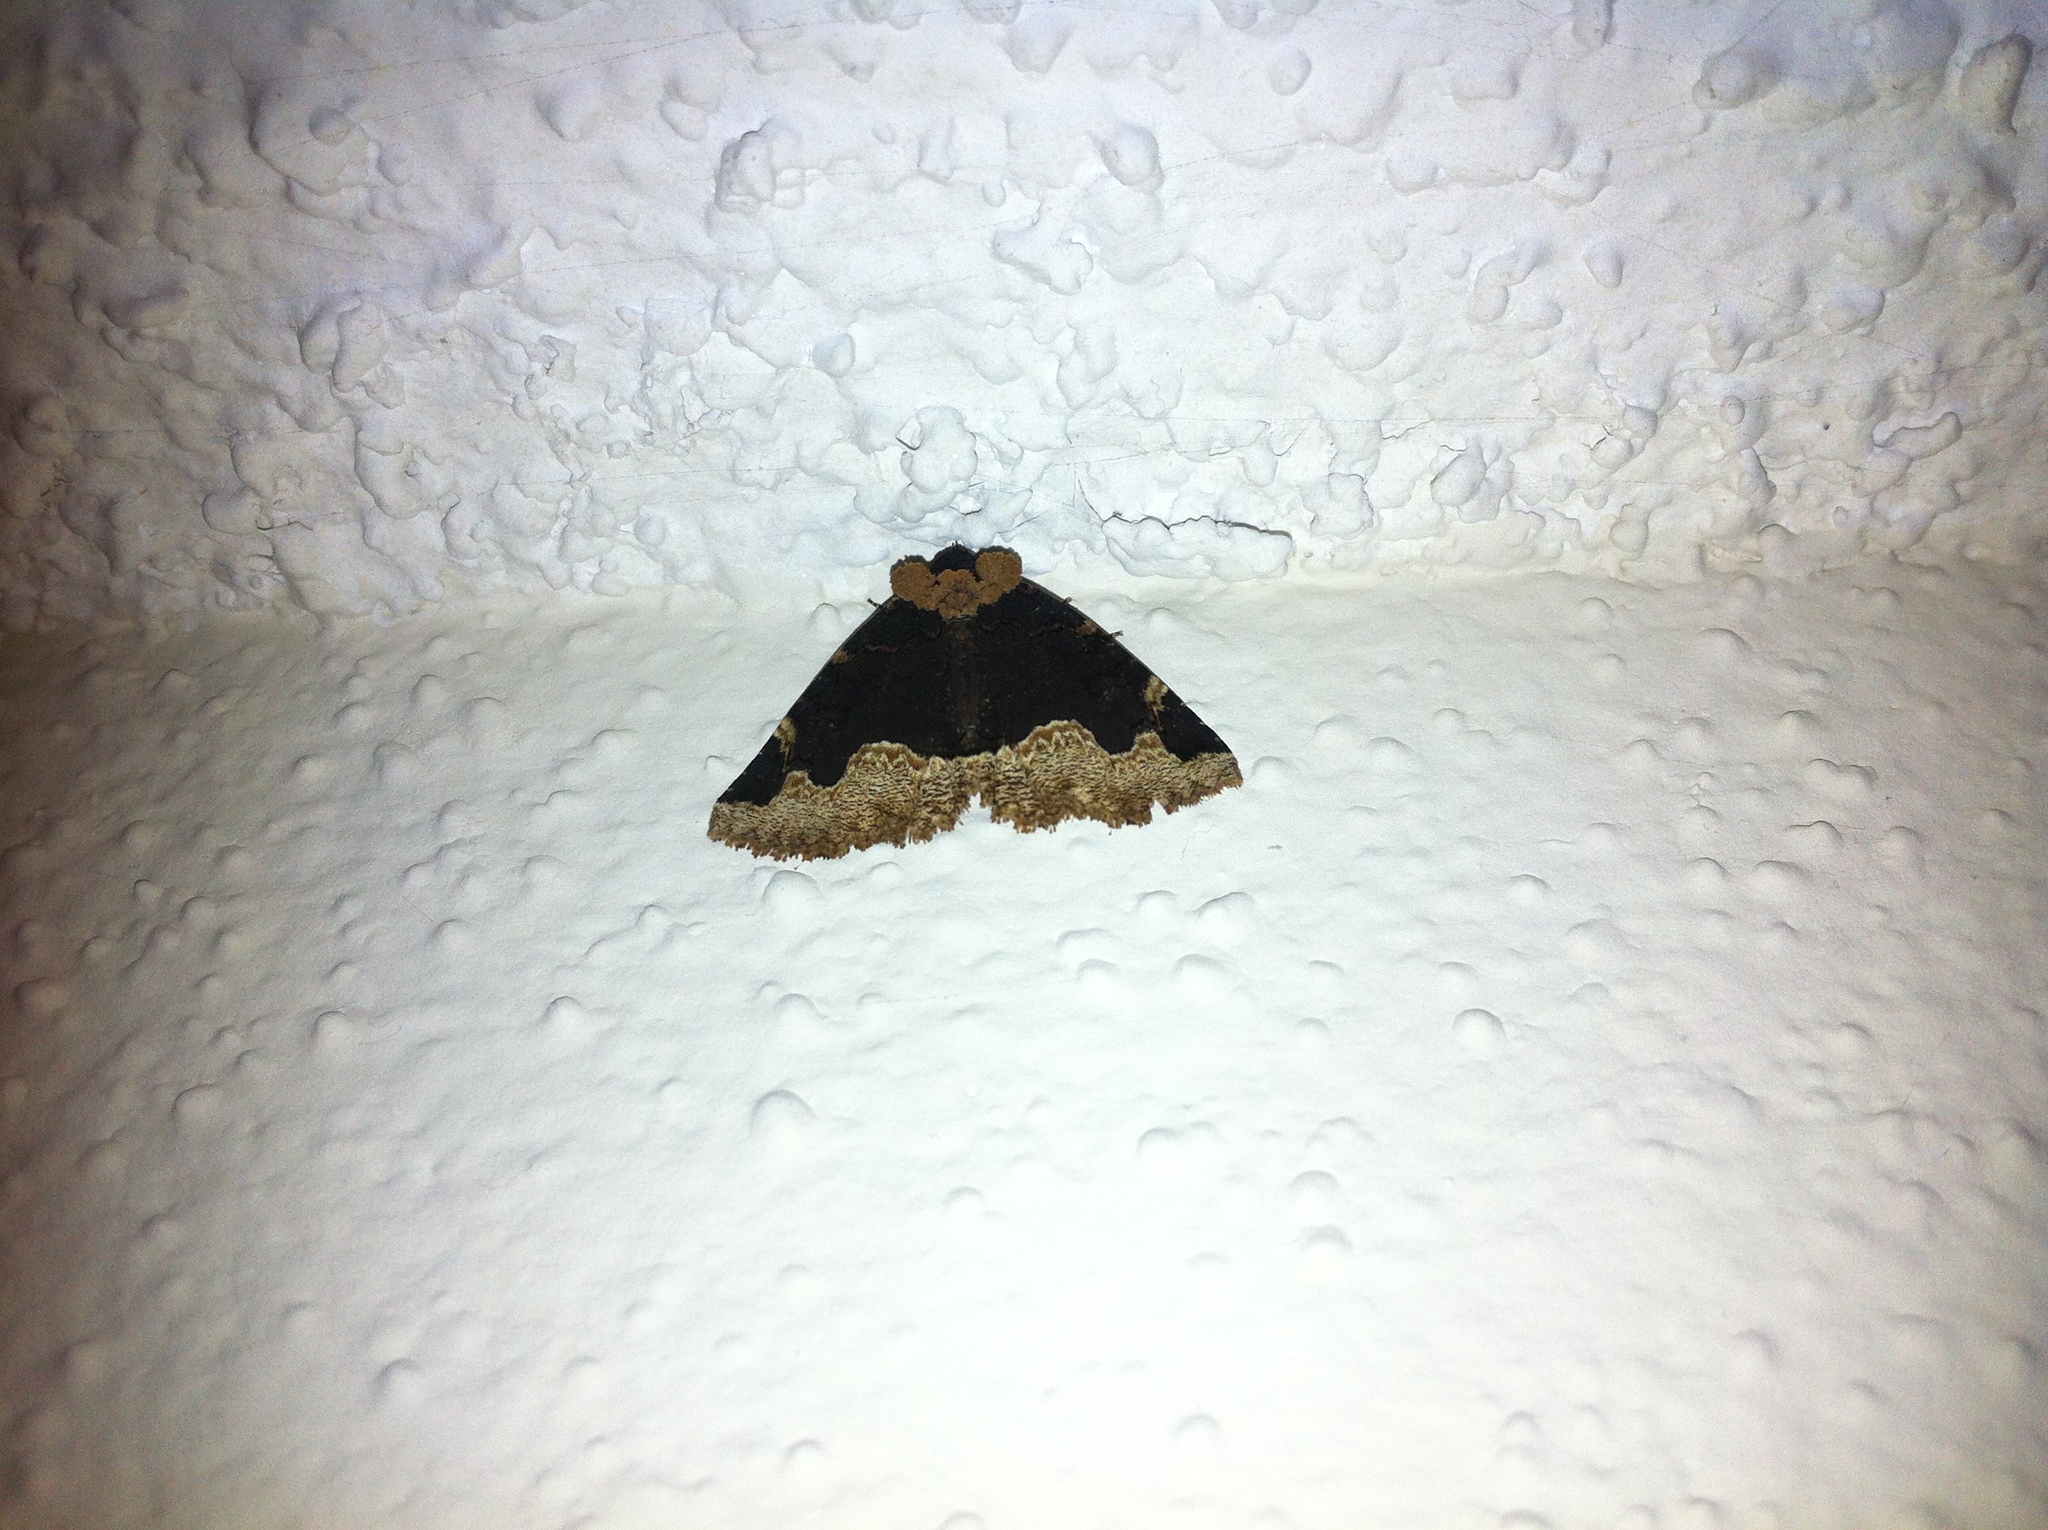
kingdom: Animalia
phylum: Arthropoda
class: Insecta
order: Lepidoptera
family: Erebidae
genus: Zale
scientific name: Zale horrida
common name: Horrid zale moth
